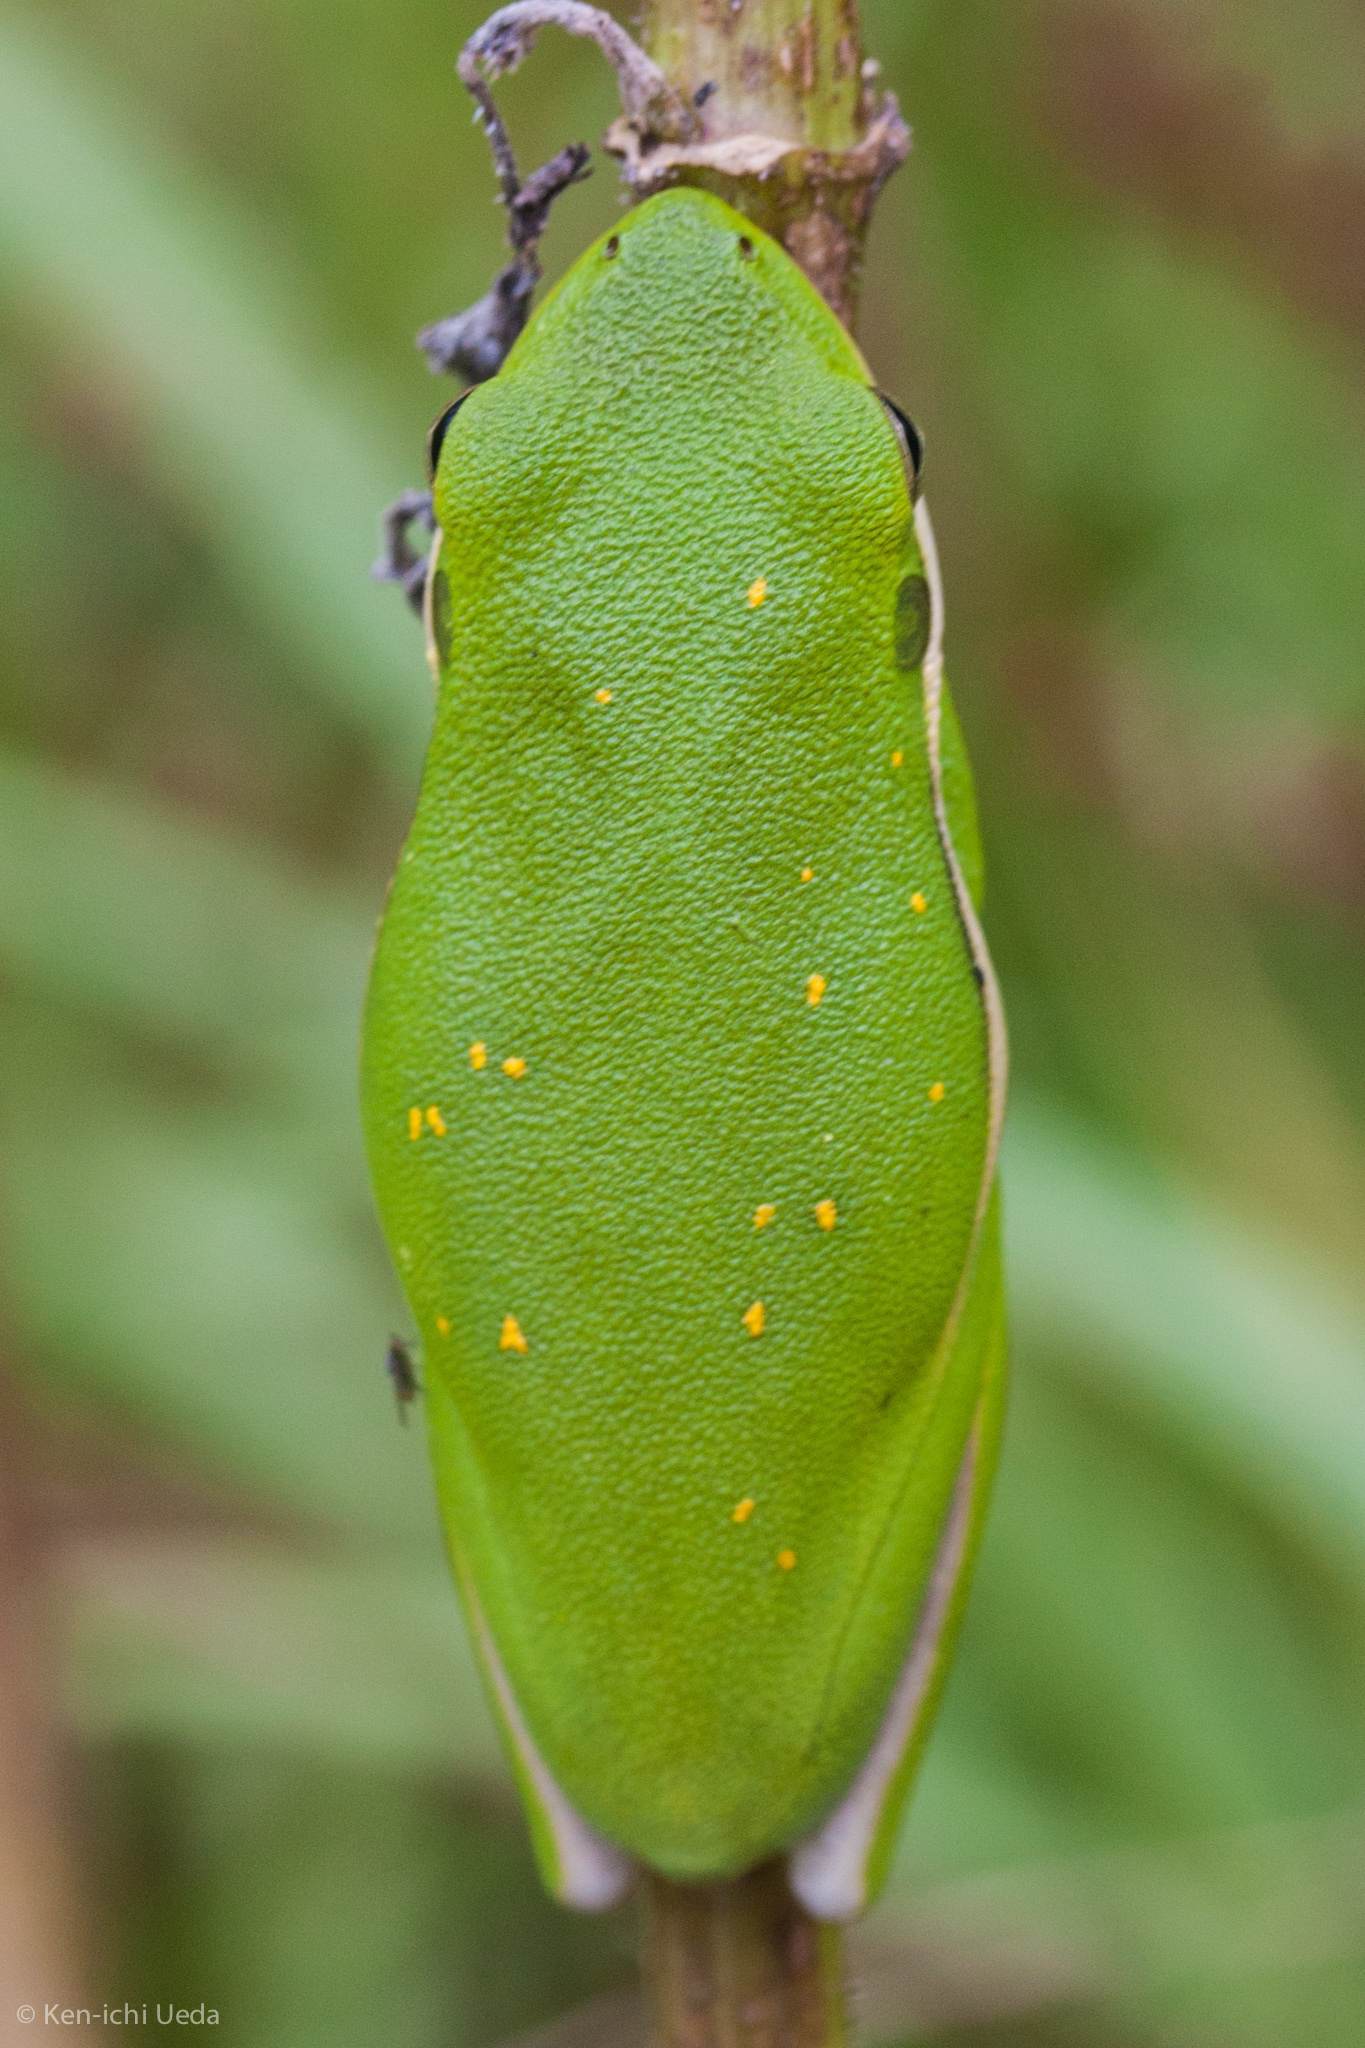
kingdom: Animalia
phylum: Chordata
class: Amphibia
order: Anura
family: Hylidae
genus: Dryophytes
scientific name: Dryophytes cinereus
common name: Green treefrog
